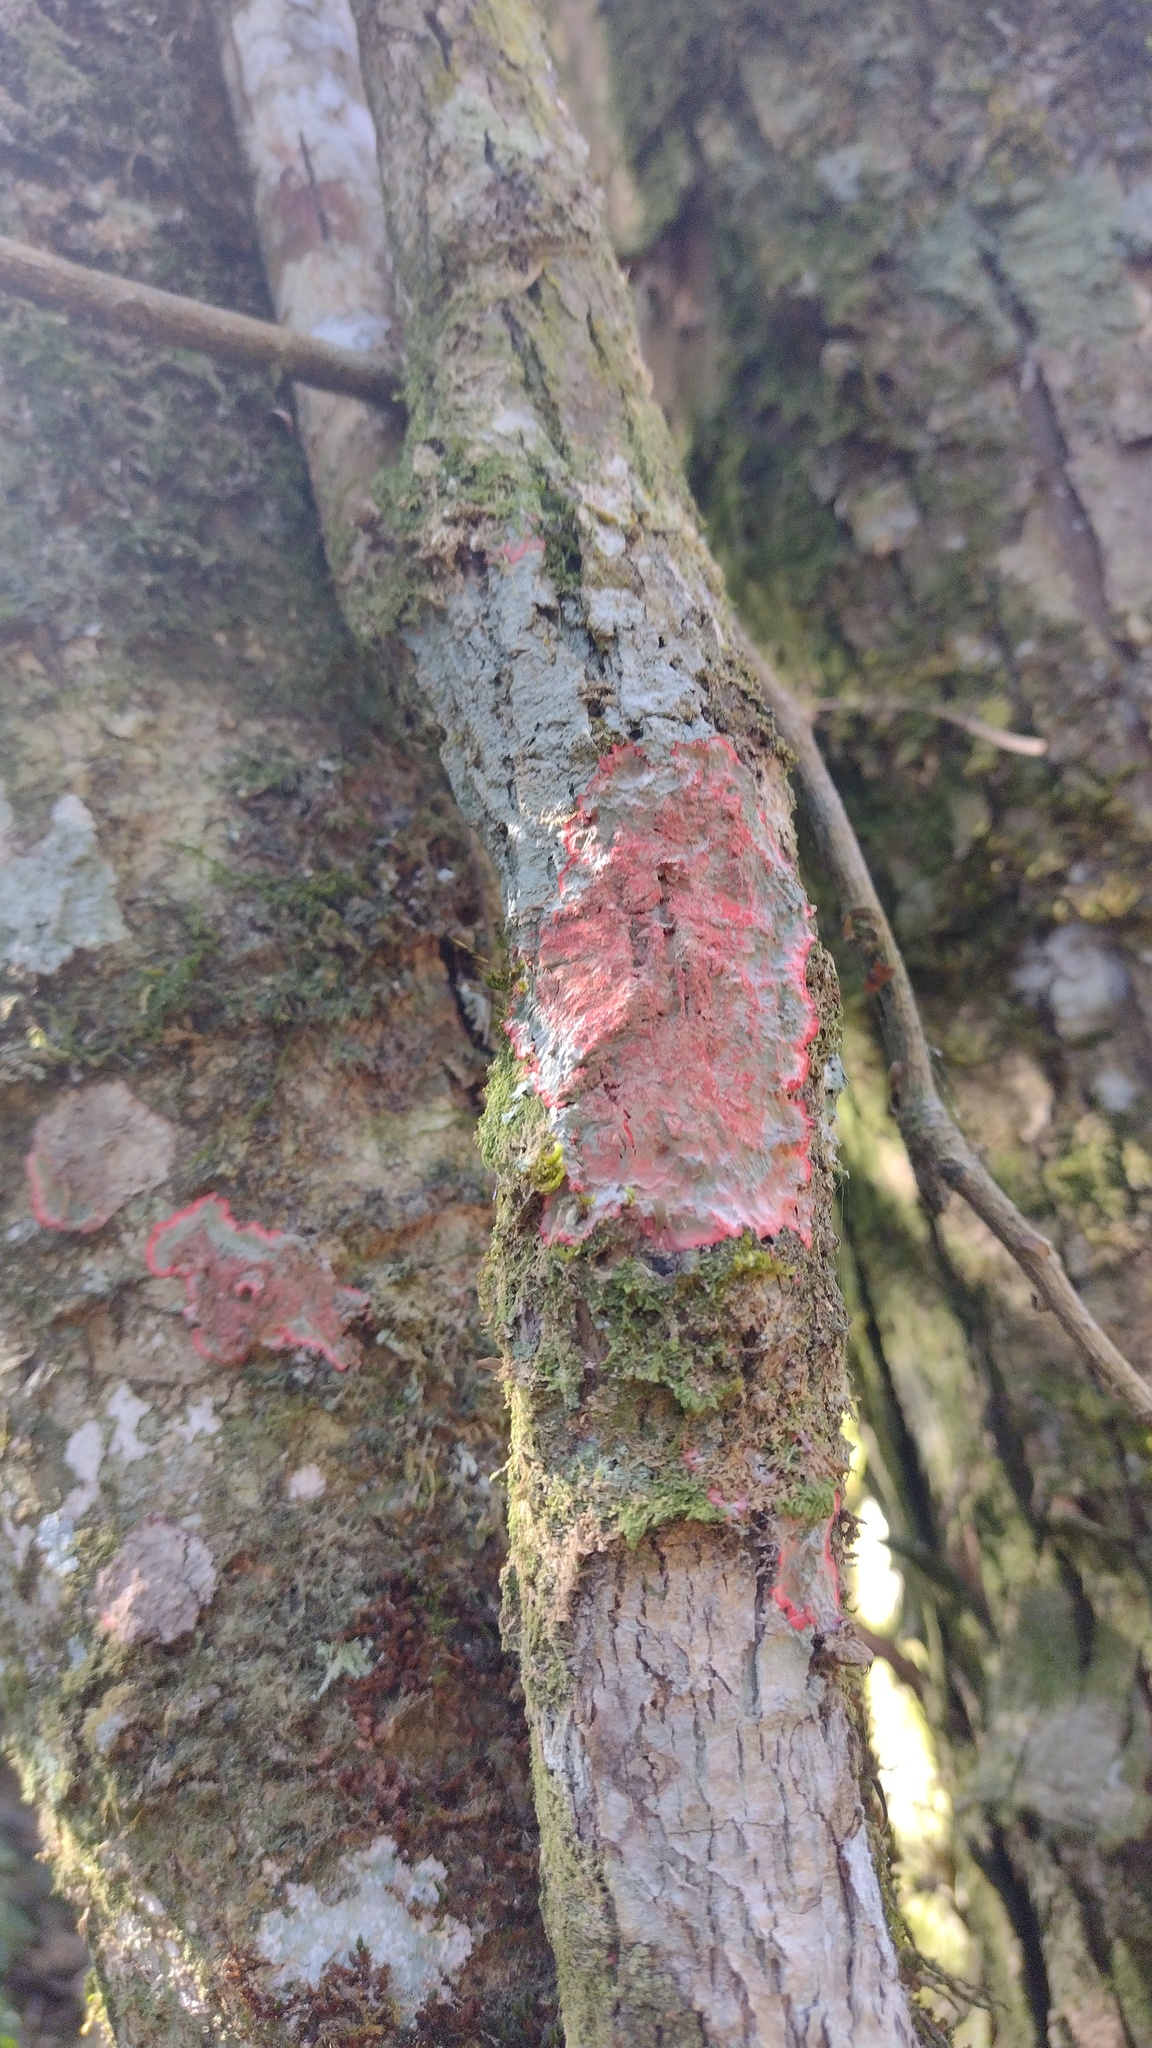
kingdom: Fungi
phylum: Ascomycota
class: Arthoniomycetes
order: Arthoniales
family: Arthoniaceae
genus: Herpothallon
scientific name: Herpothallon rubrocinctum
